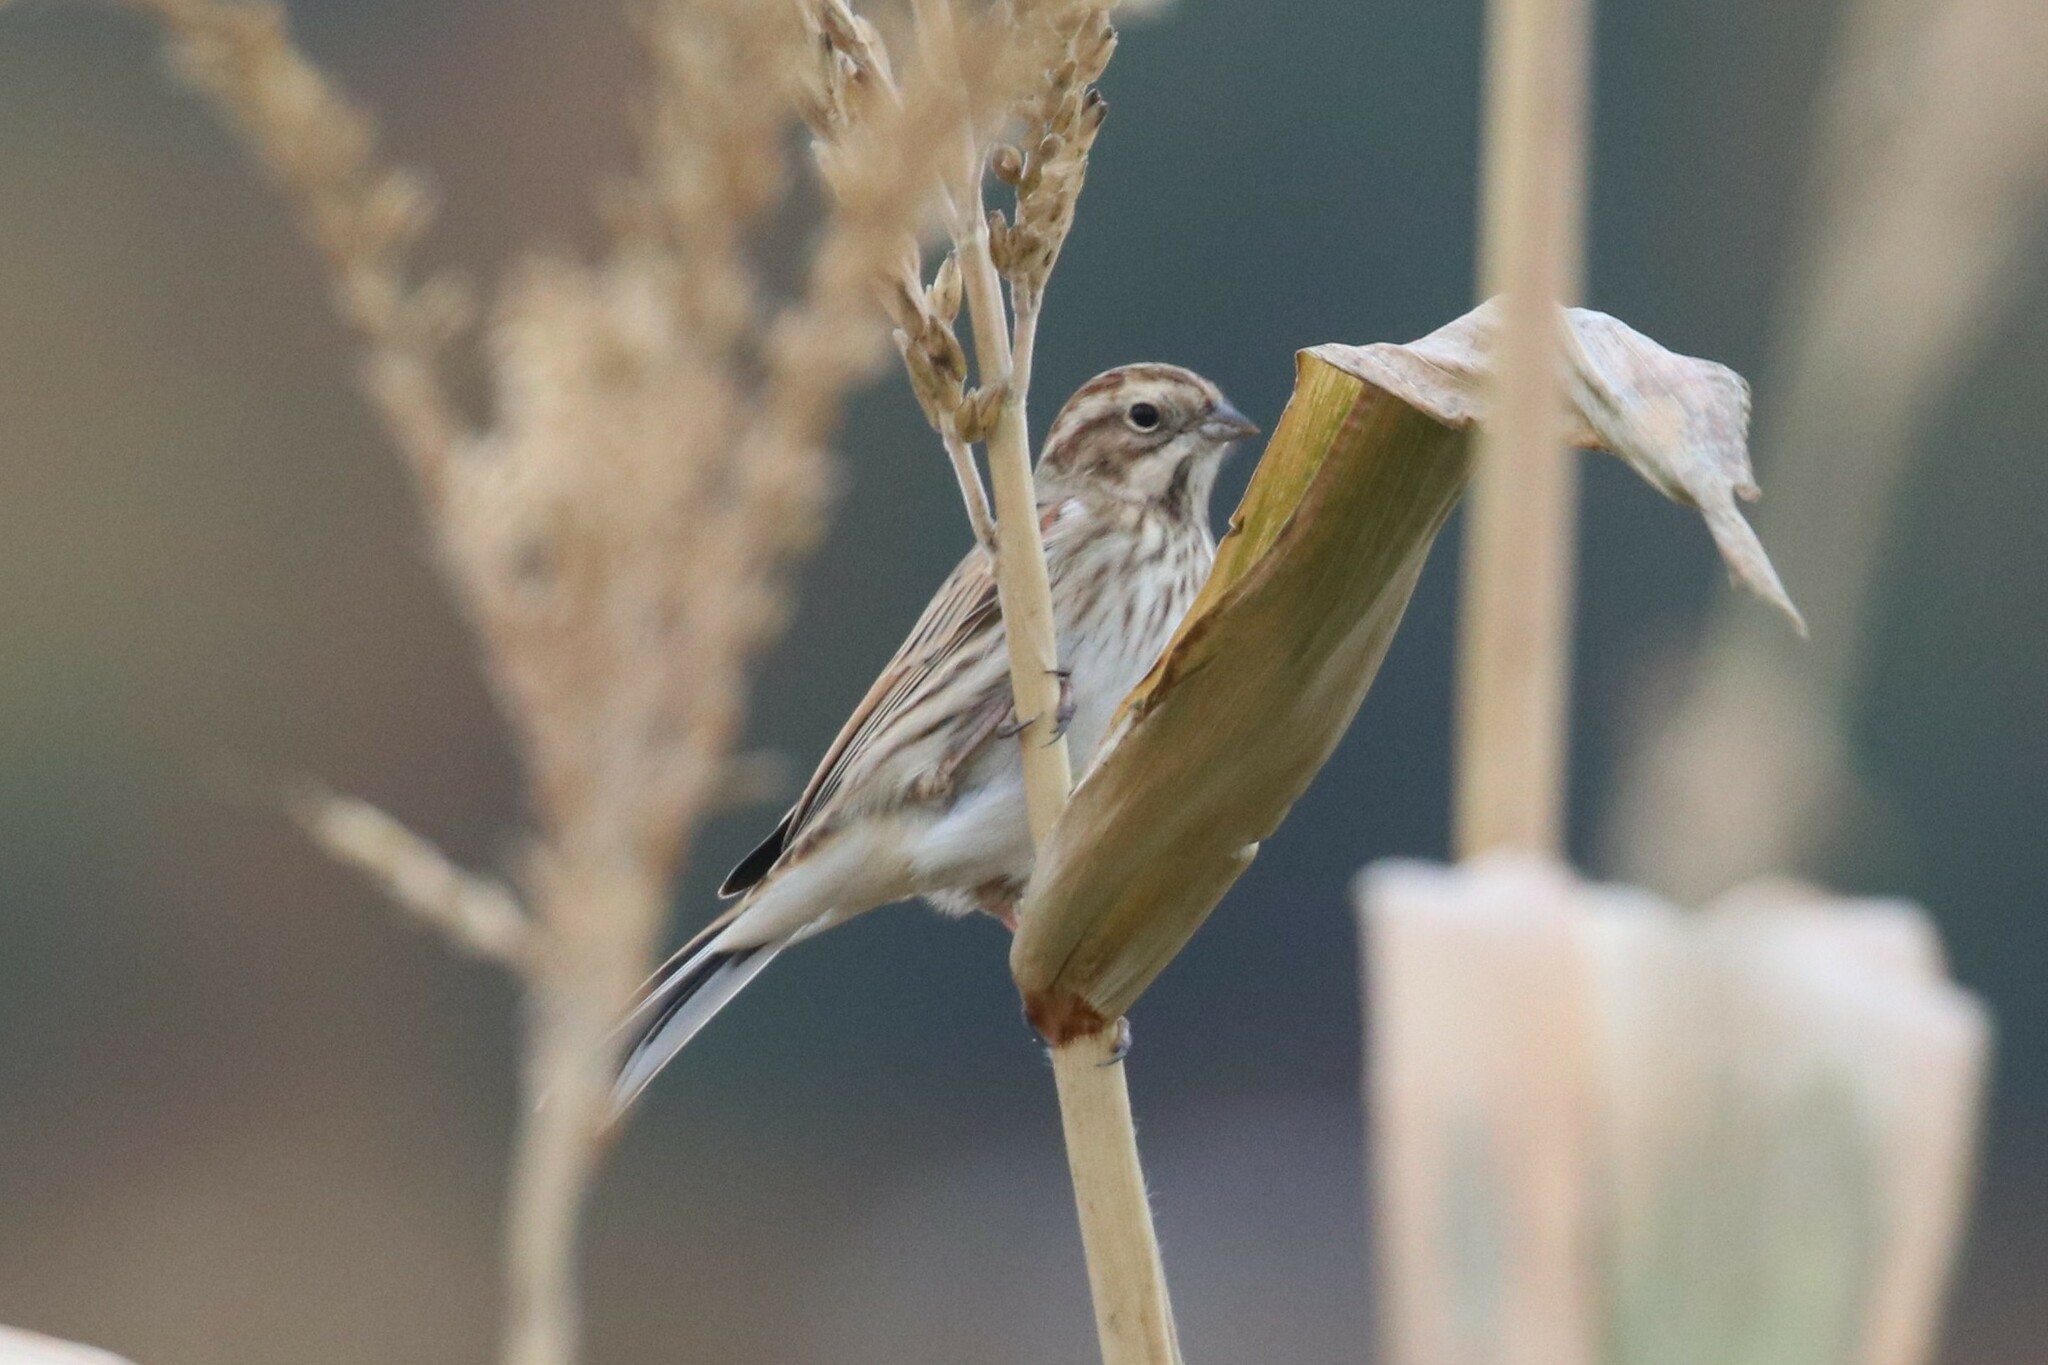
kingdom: Animalia
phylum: Chordata
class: Aves
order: Passeriformes
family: Emberizidae
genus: Emberiza
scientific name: Emberiza schoeniclus
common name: Reed bunting
